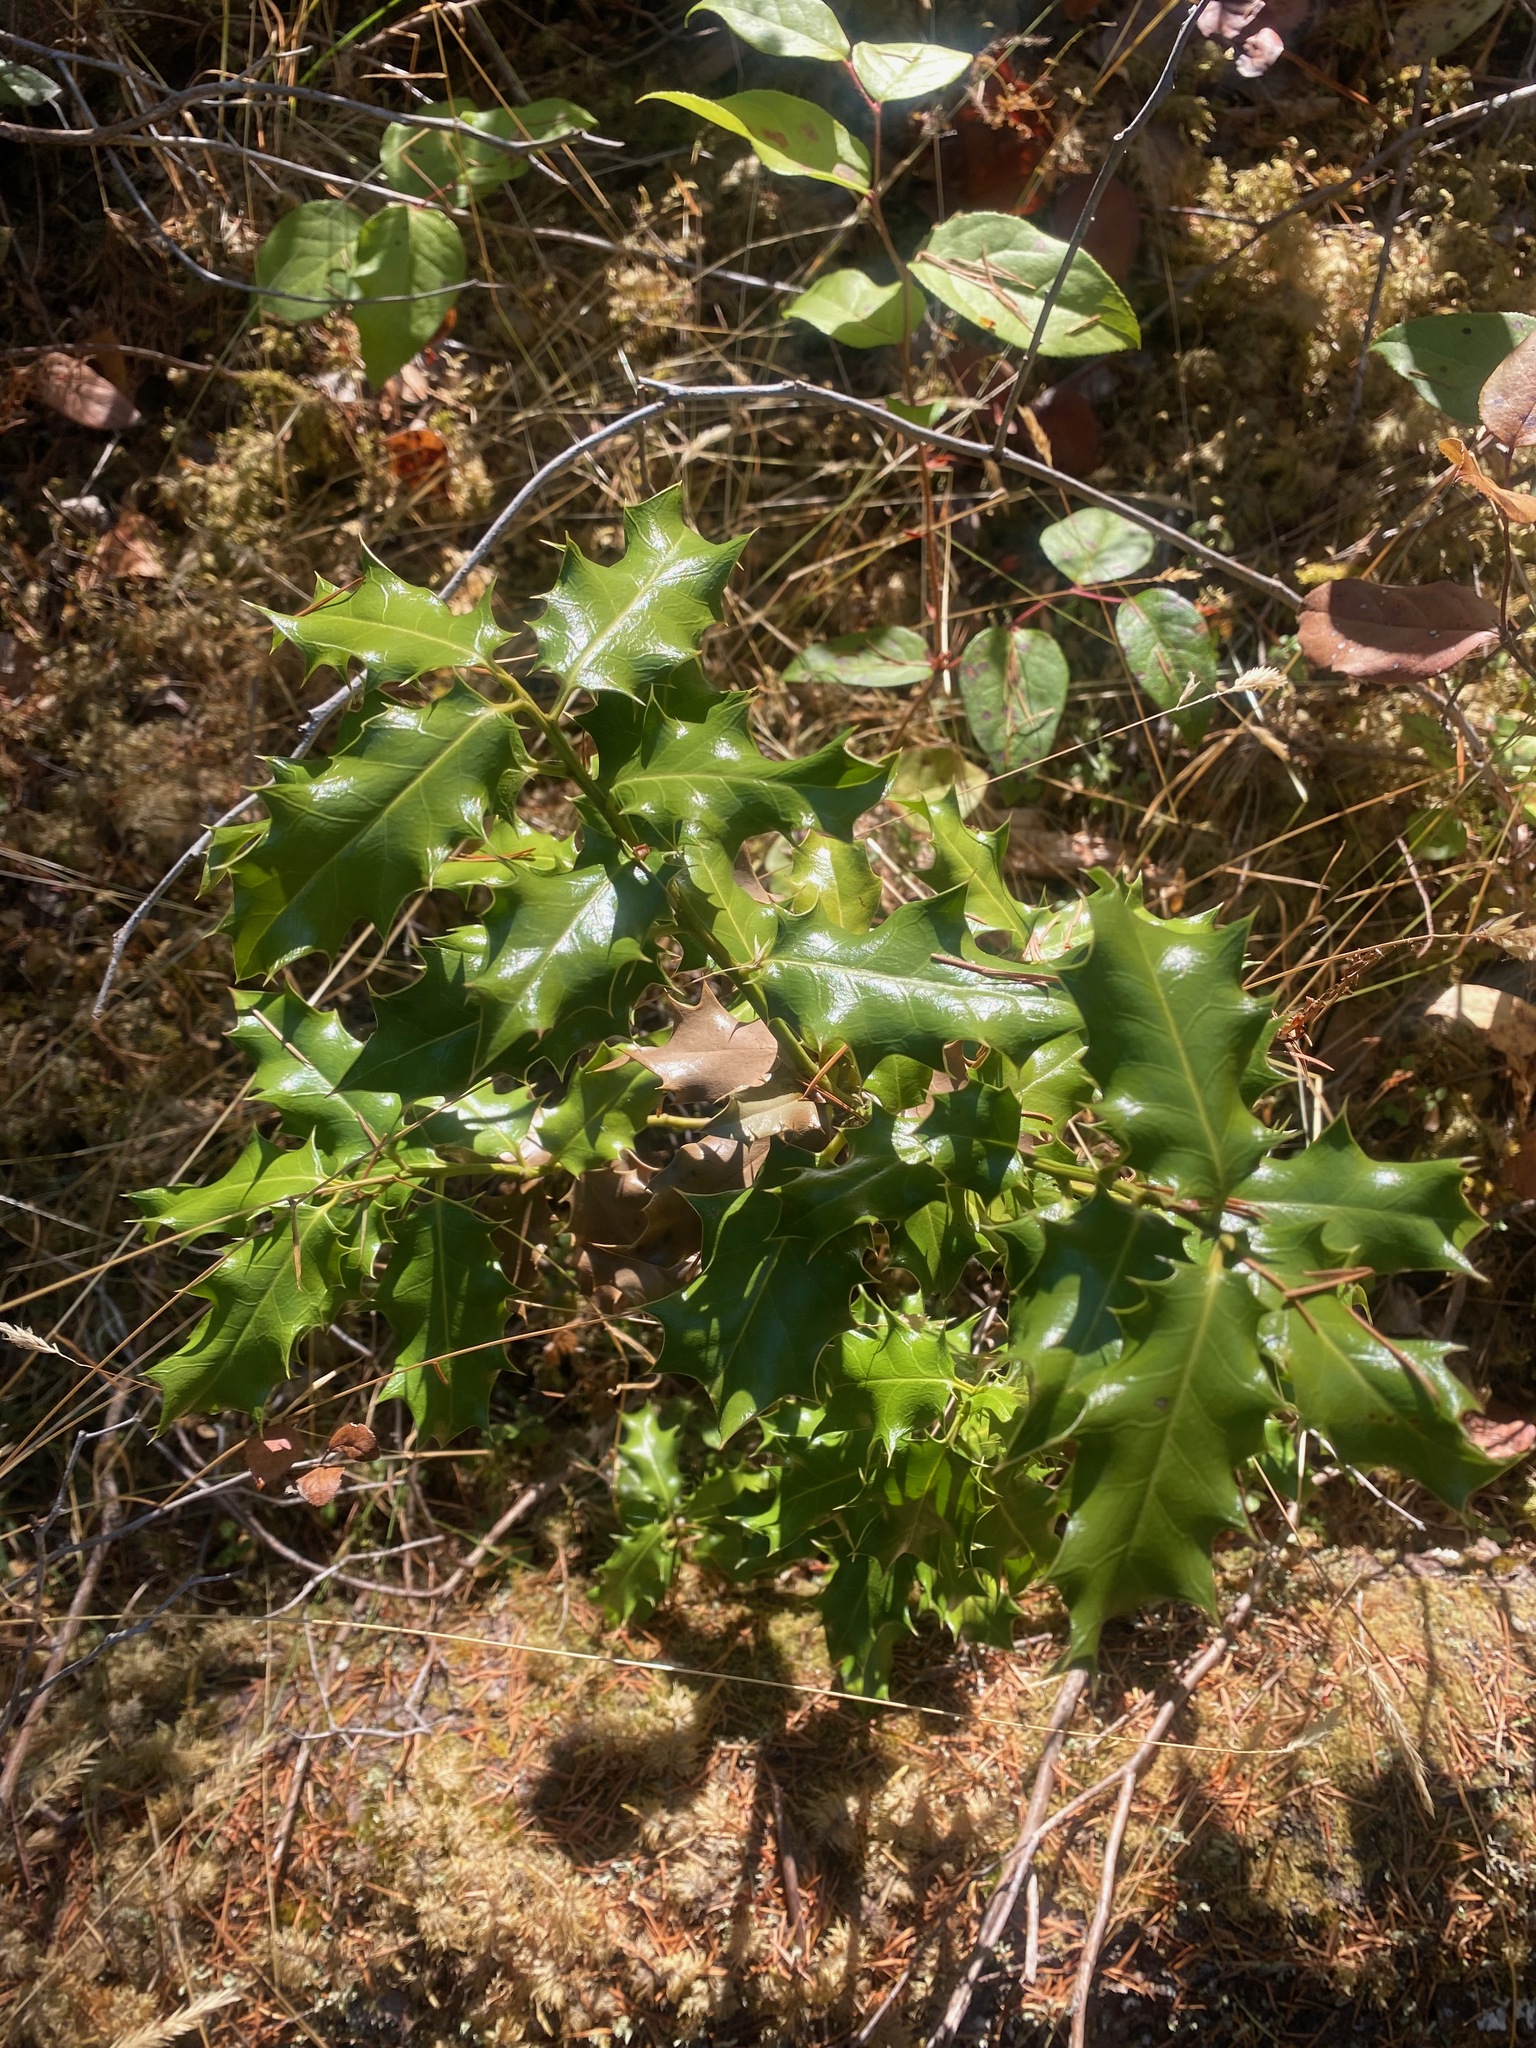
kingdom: Plantae
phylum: Tracheophyta
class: Magnoliopsida
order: Aquifoliales
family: Aquifoliaceae
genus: Ilex
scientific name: Ilex aquifolium
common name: English holly
